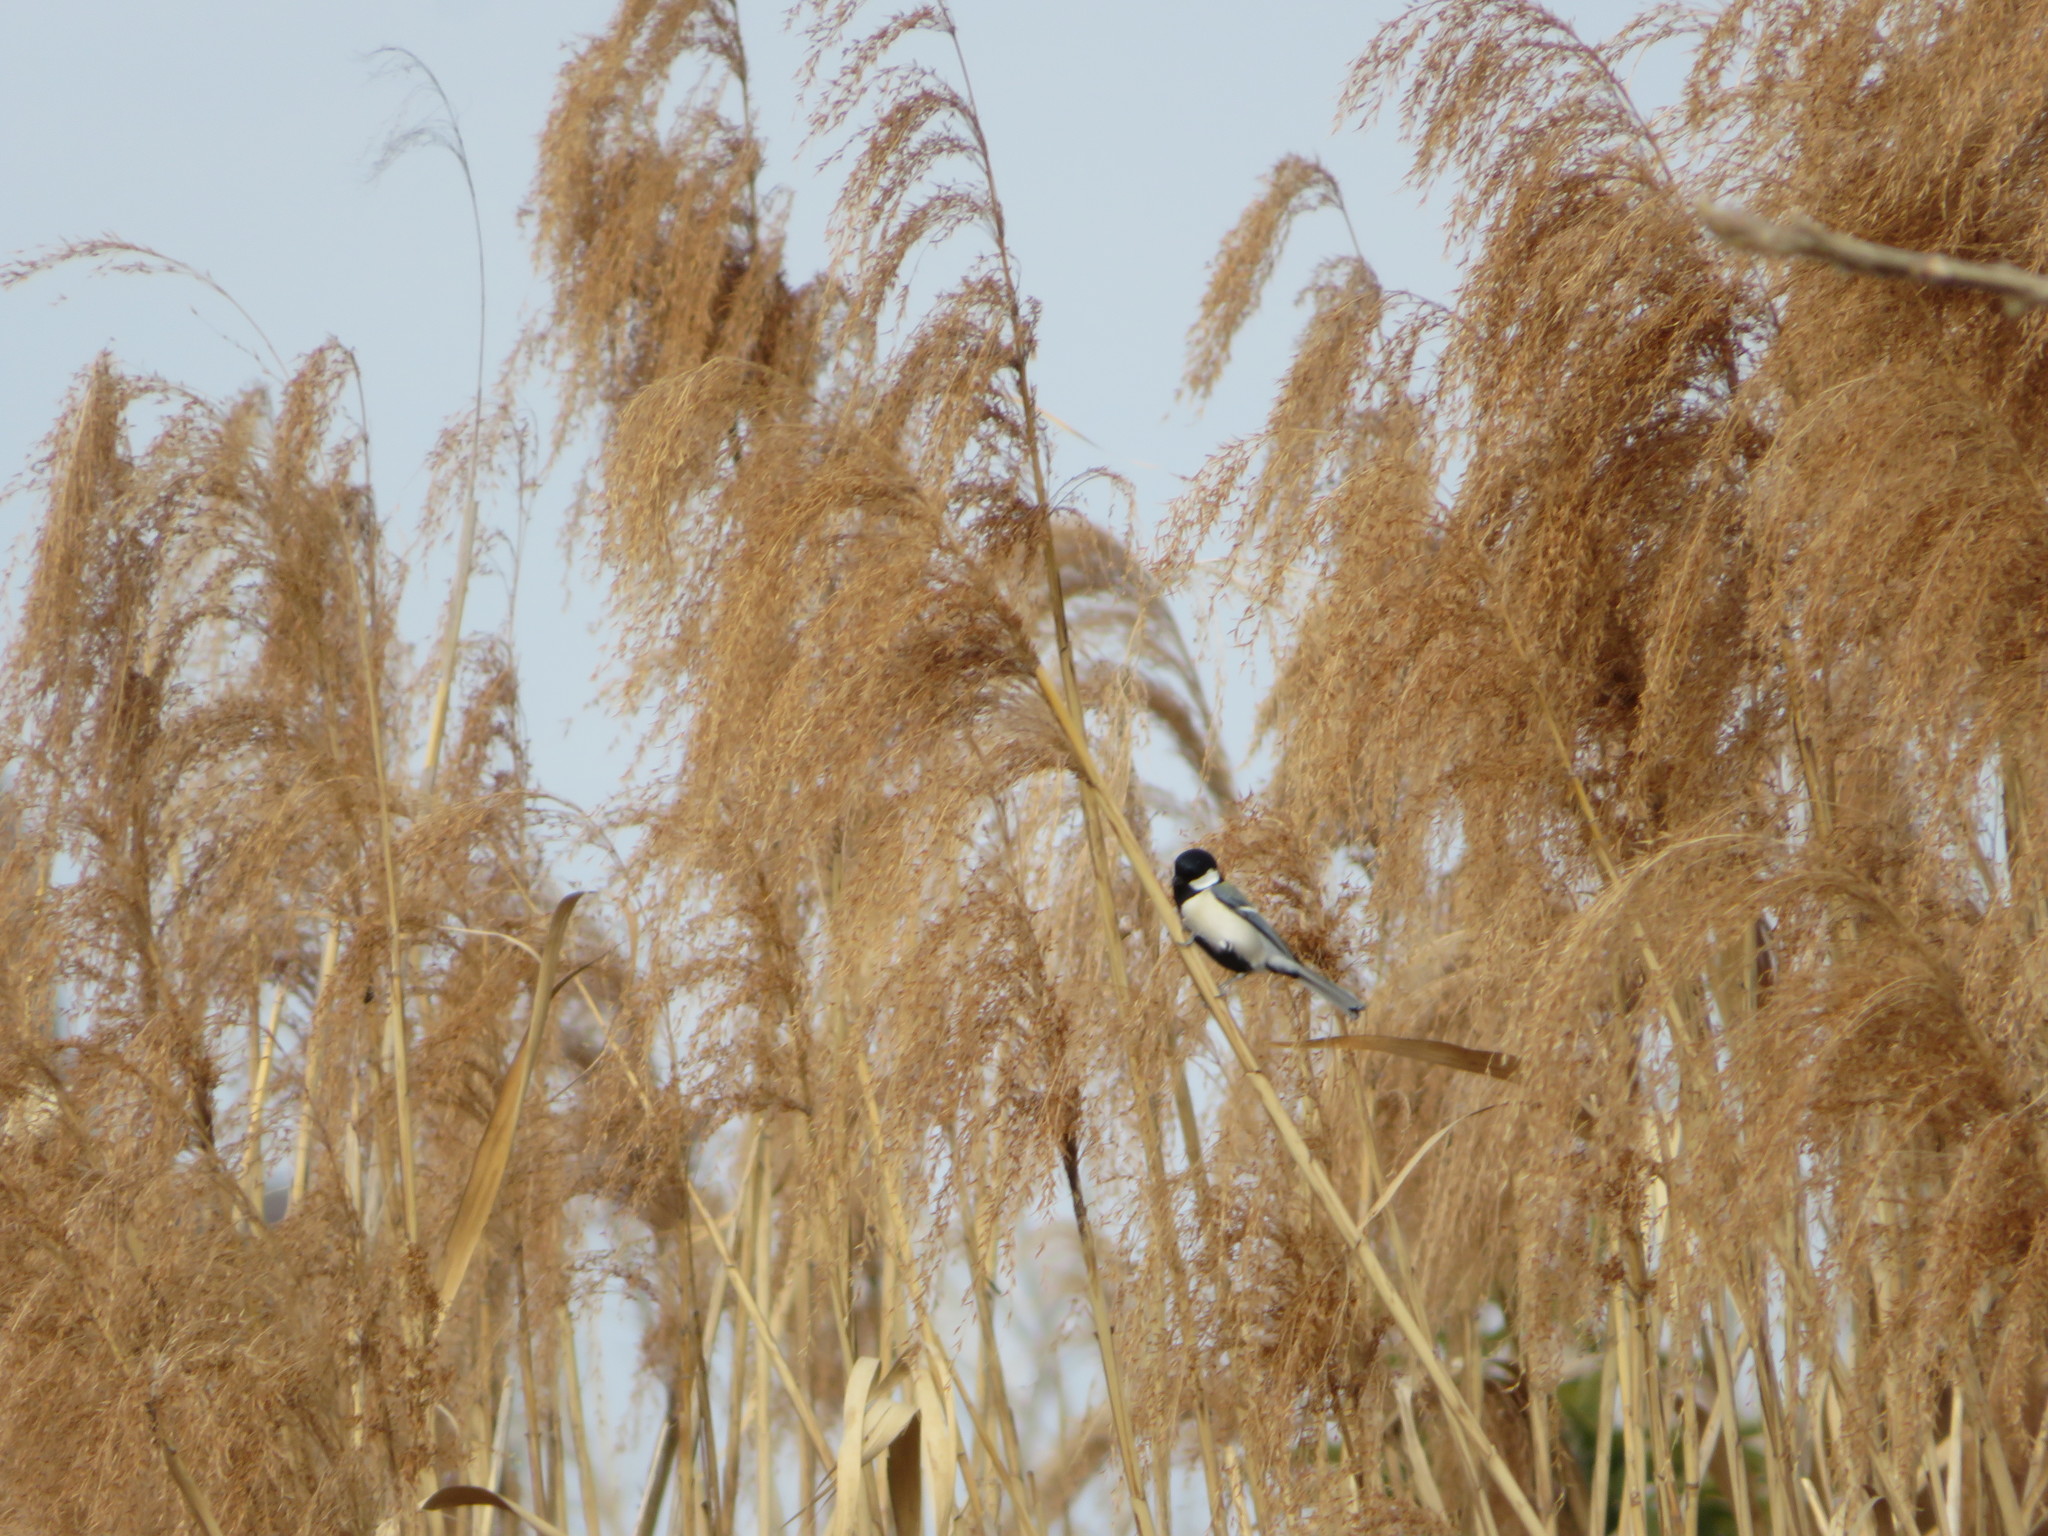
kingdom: Animalia
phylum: Chordata
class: Aves
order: Passeriformes
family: Paridae
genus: Parus
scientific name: Parus minor
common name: Japanese tit
